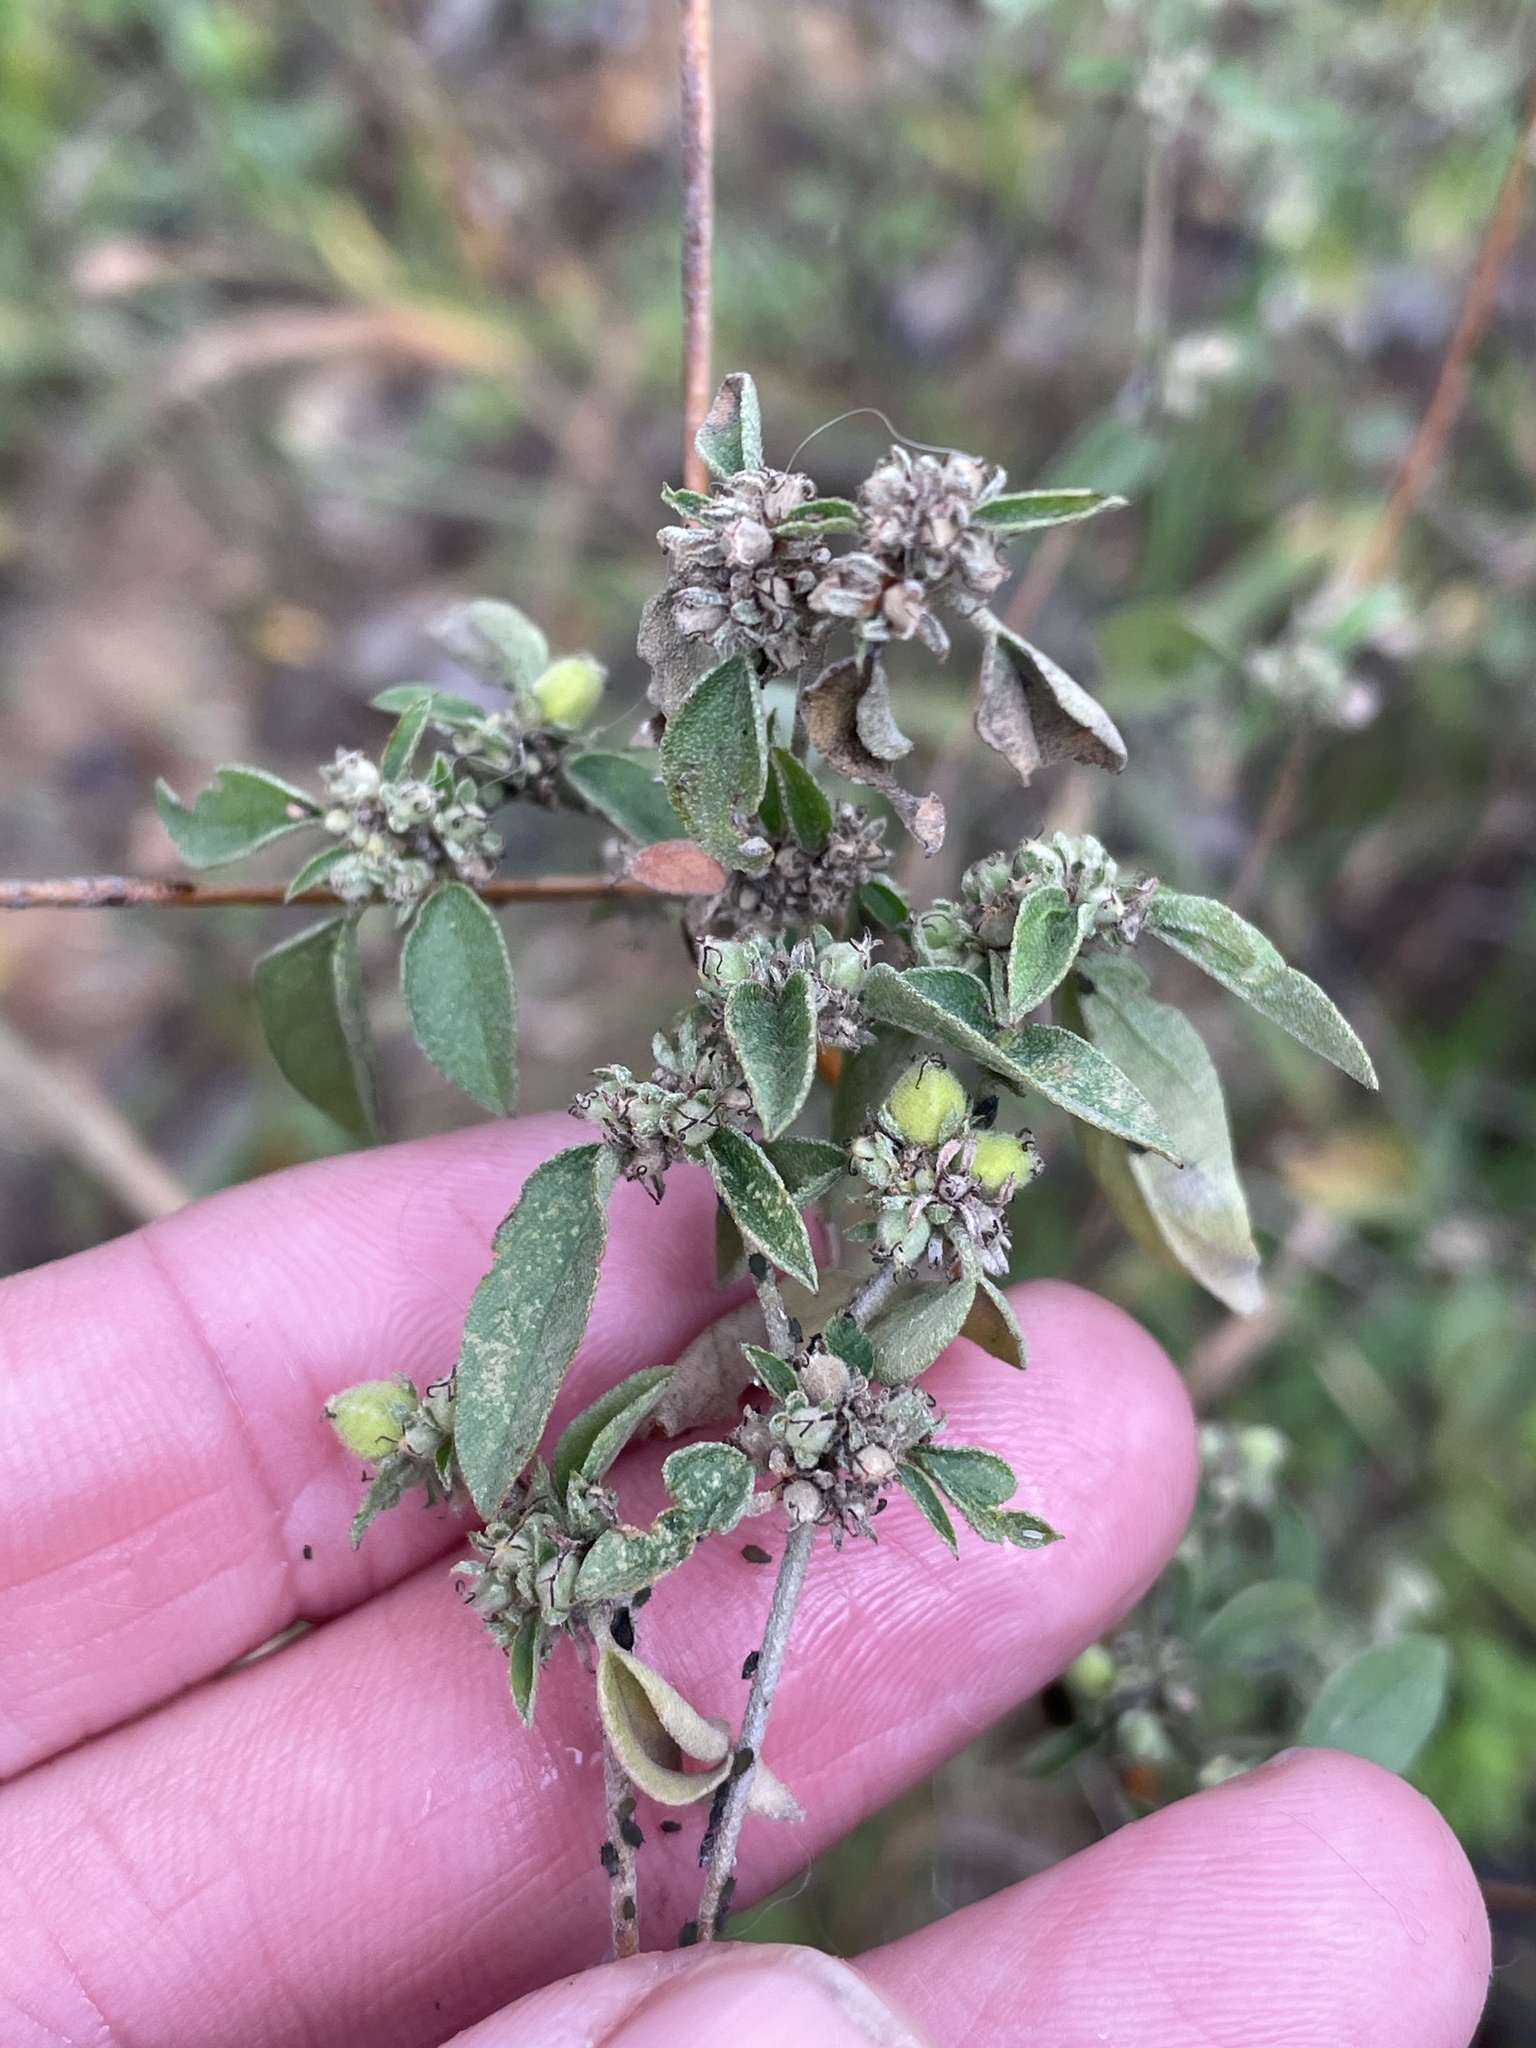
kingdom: Plantae
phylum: Tracheophyta
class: Magnoliopsida
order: Malpighiales
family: Euphorbiaceae
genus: Croton
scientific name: Croton monanthogynus
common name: One-seed croton
